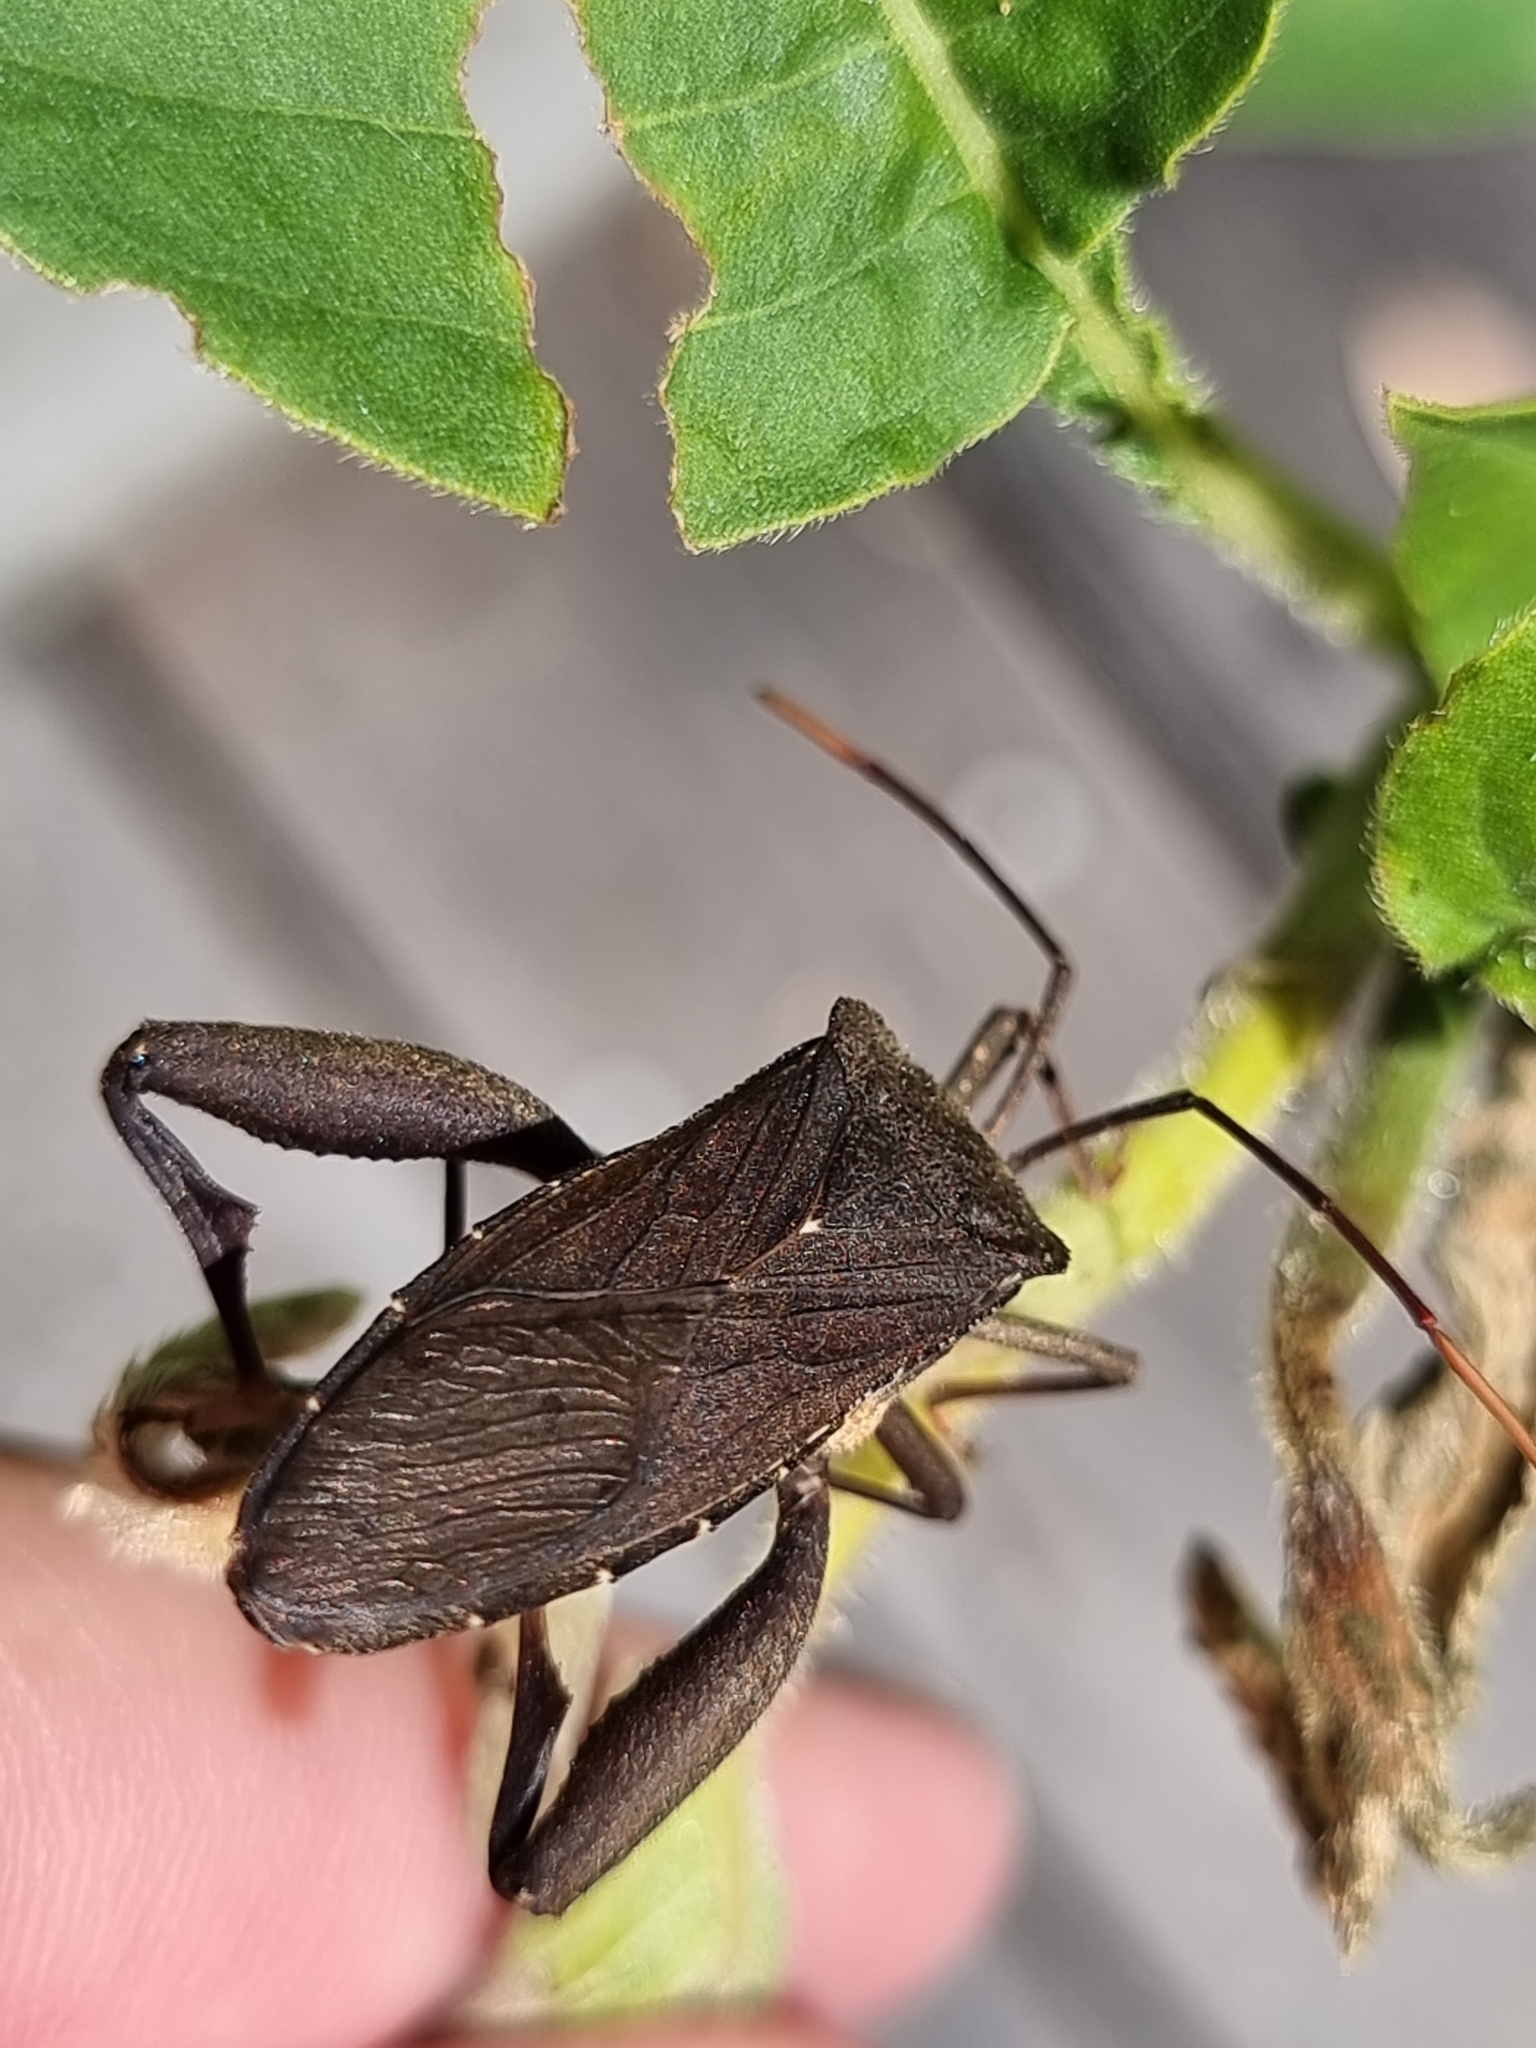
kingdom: Animalia
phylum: Arthropoda
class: Insecta
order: Hemiptera
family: Coreidae
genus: Mictis
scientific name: Mictis caja
